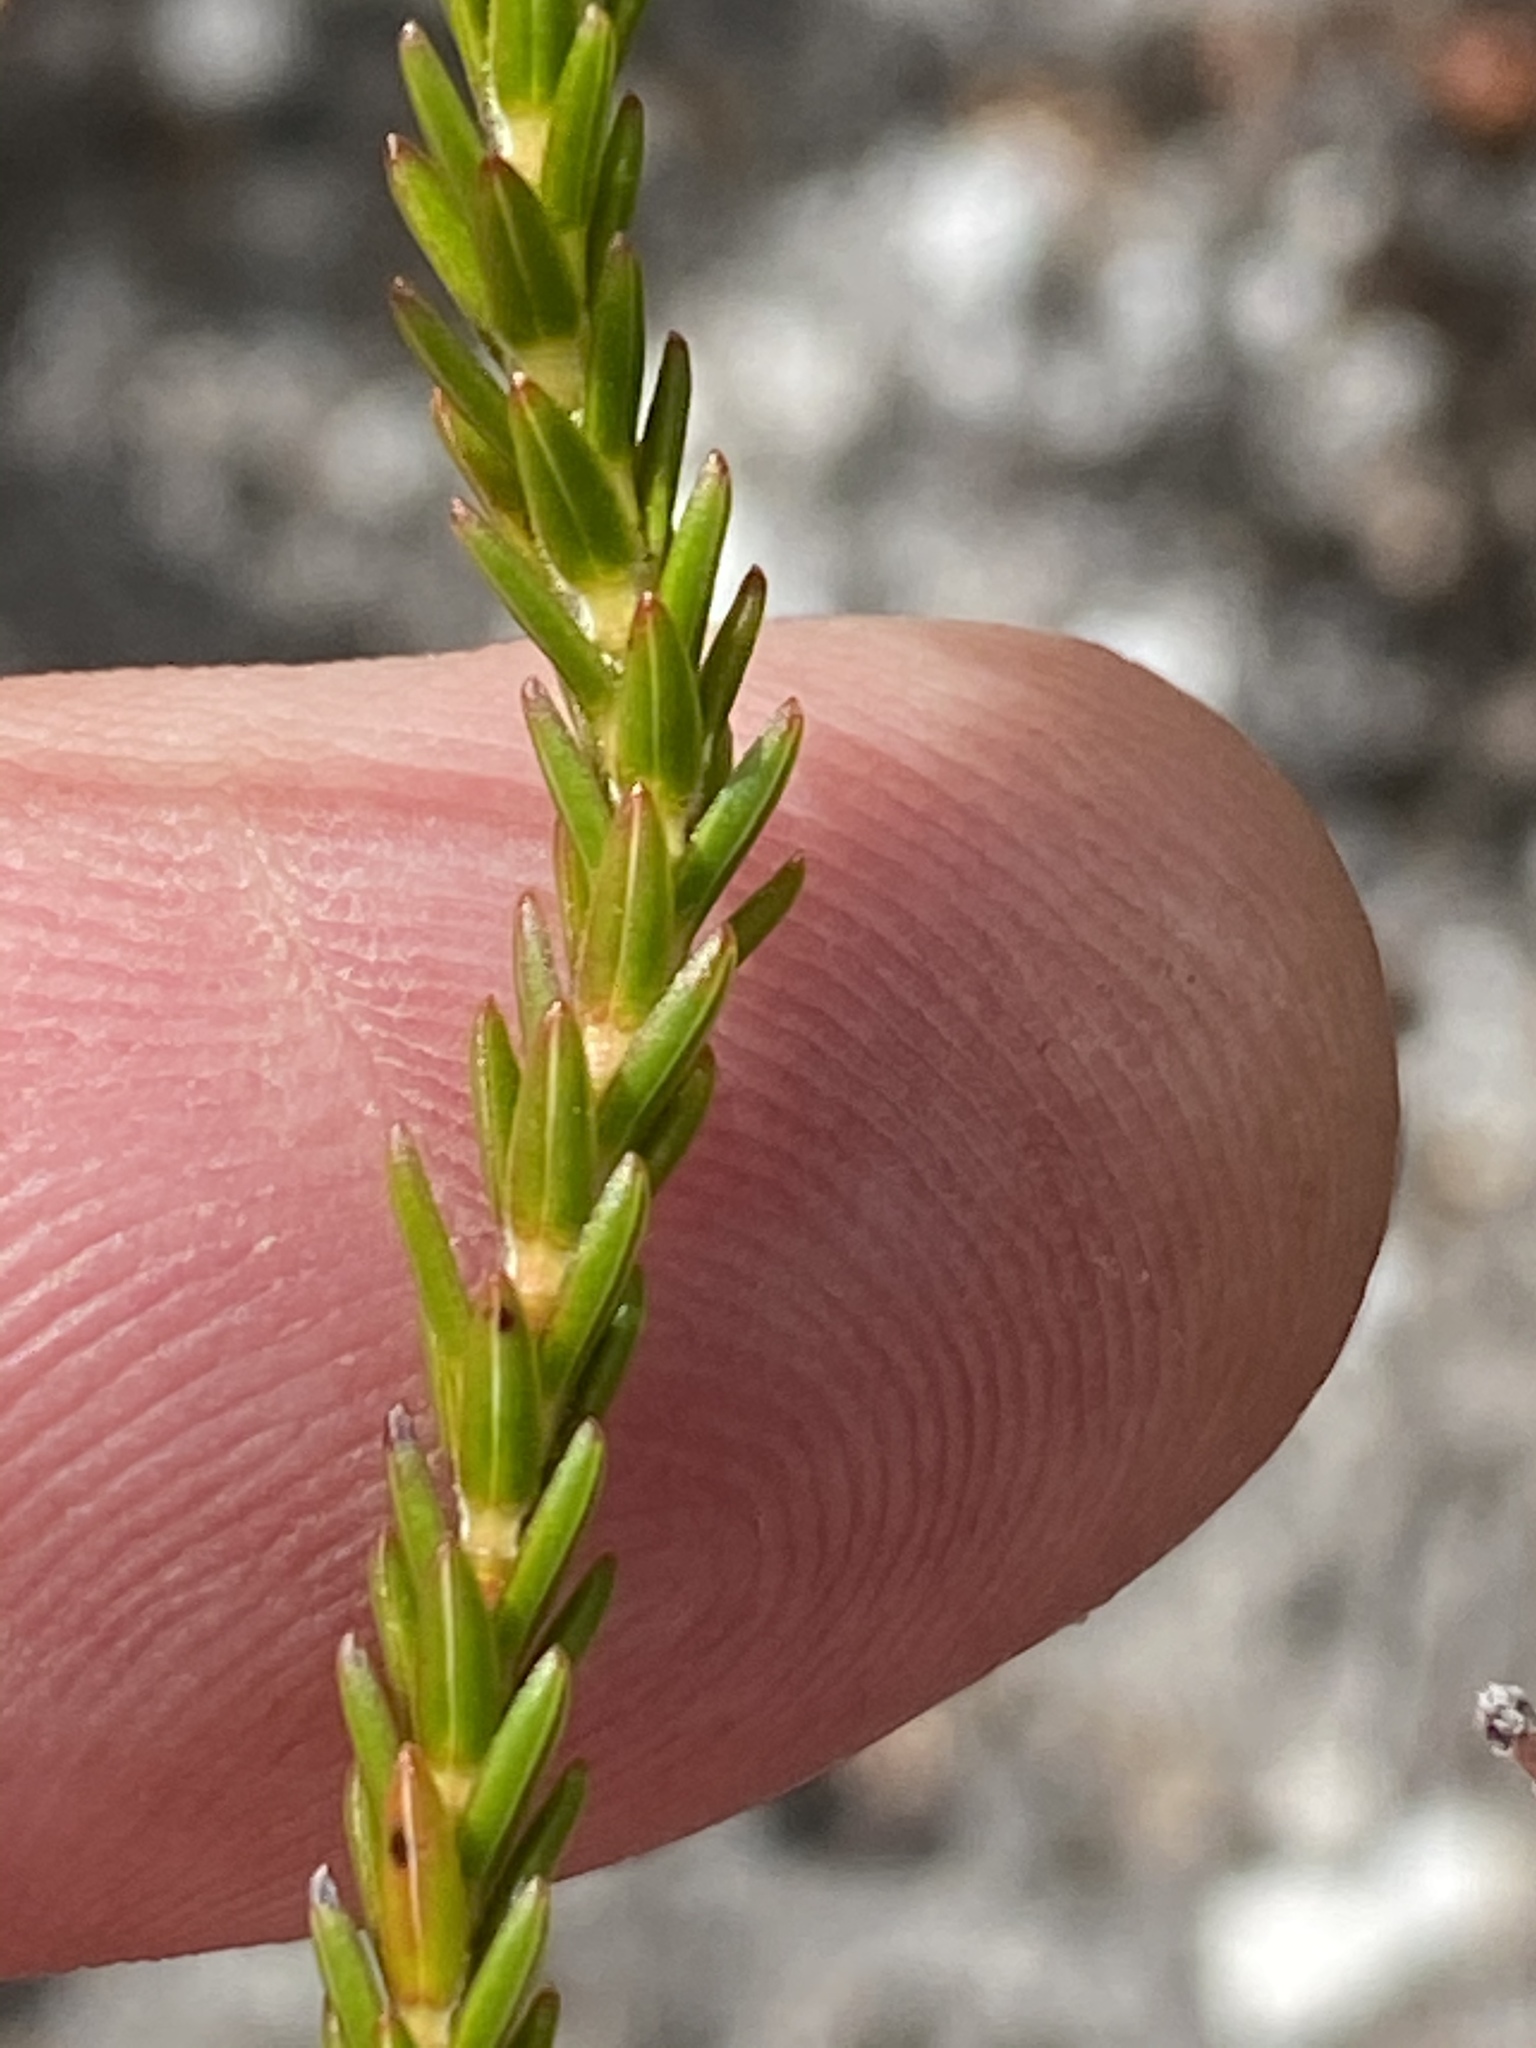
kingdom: Plantae
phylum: Tracheophyta
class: Magnoliopsida
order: Ericales
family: Ericaceae
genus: Erica
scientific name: Erica pulchella
